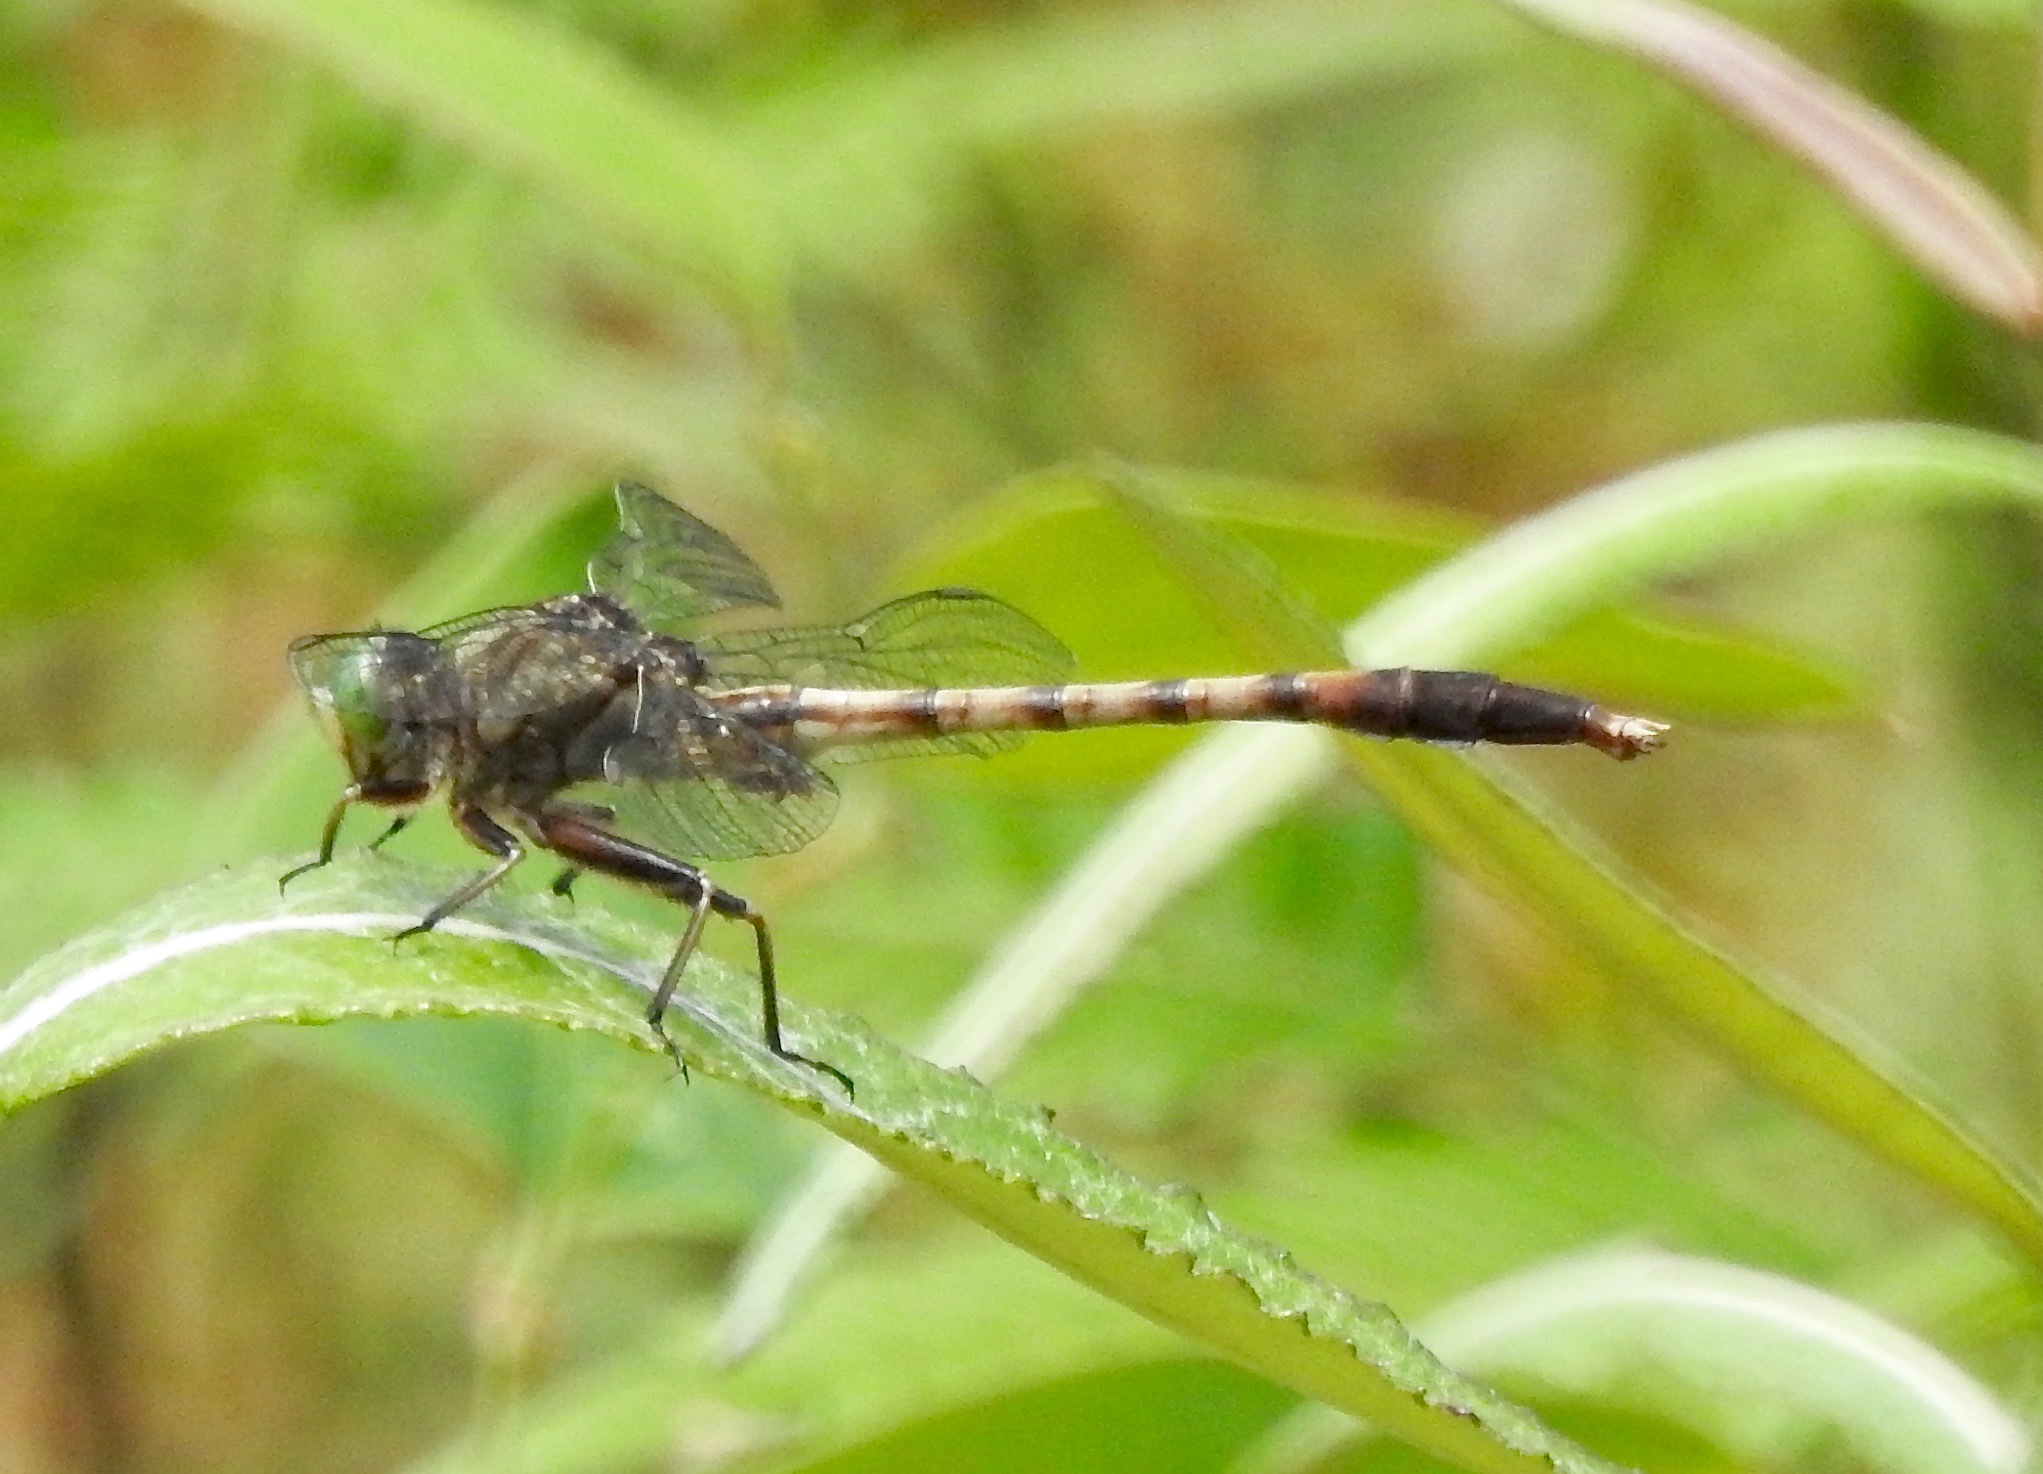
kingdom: Animalia
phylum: Arthropoda
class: Insecta
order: Odonata
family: Gomphidae
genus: Arigomphus
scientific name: Arigomphus pallidus
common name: Gray-green clubtail
